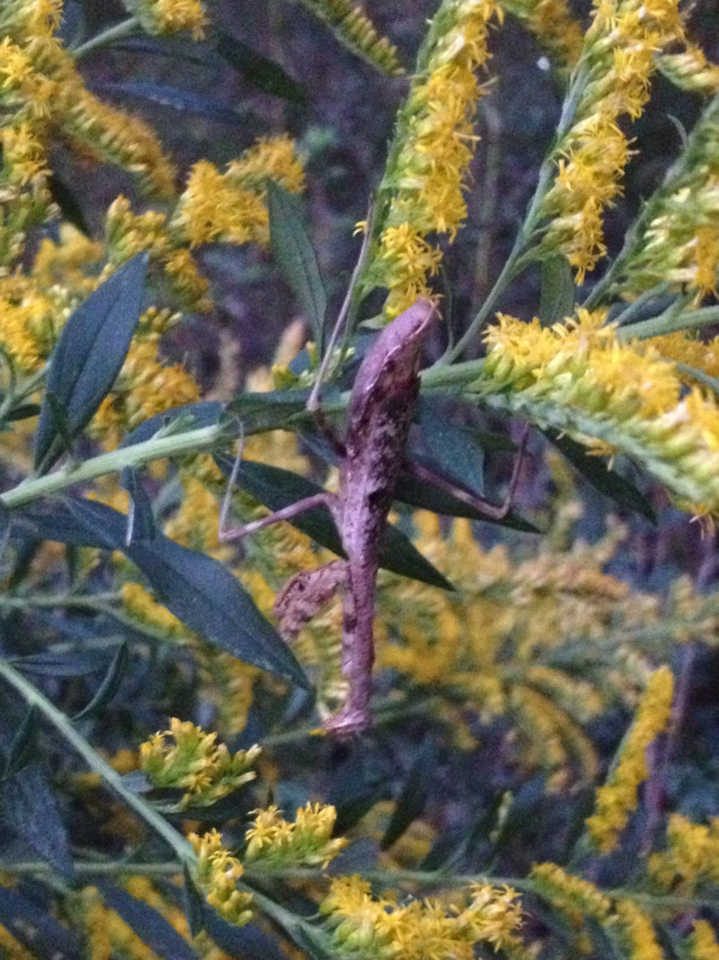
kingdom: Animalia
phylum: Arthropoda
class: Insecta
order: Mantodea
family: Mantidae
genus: Stagmomantis
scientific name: Stagmomantis carolina
